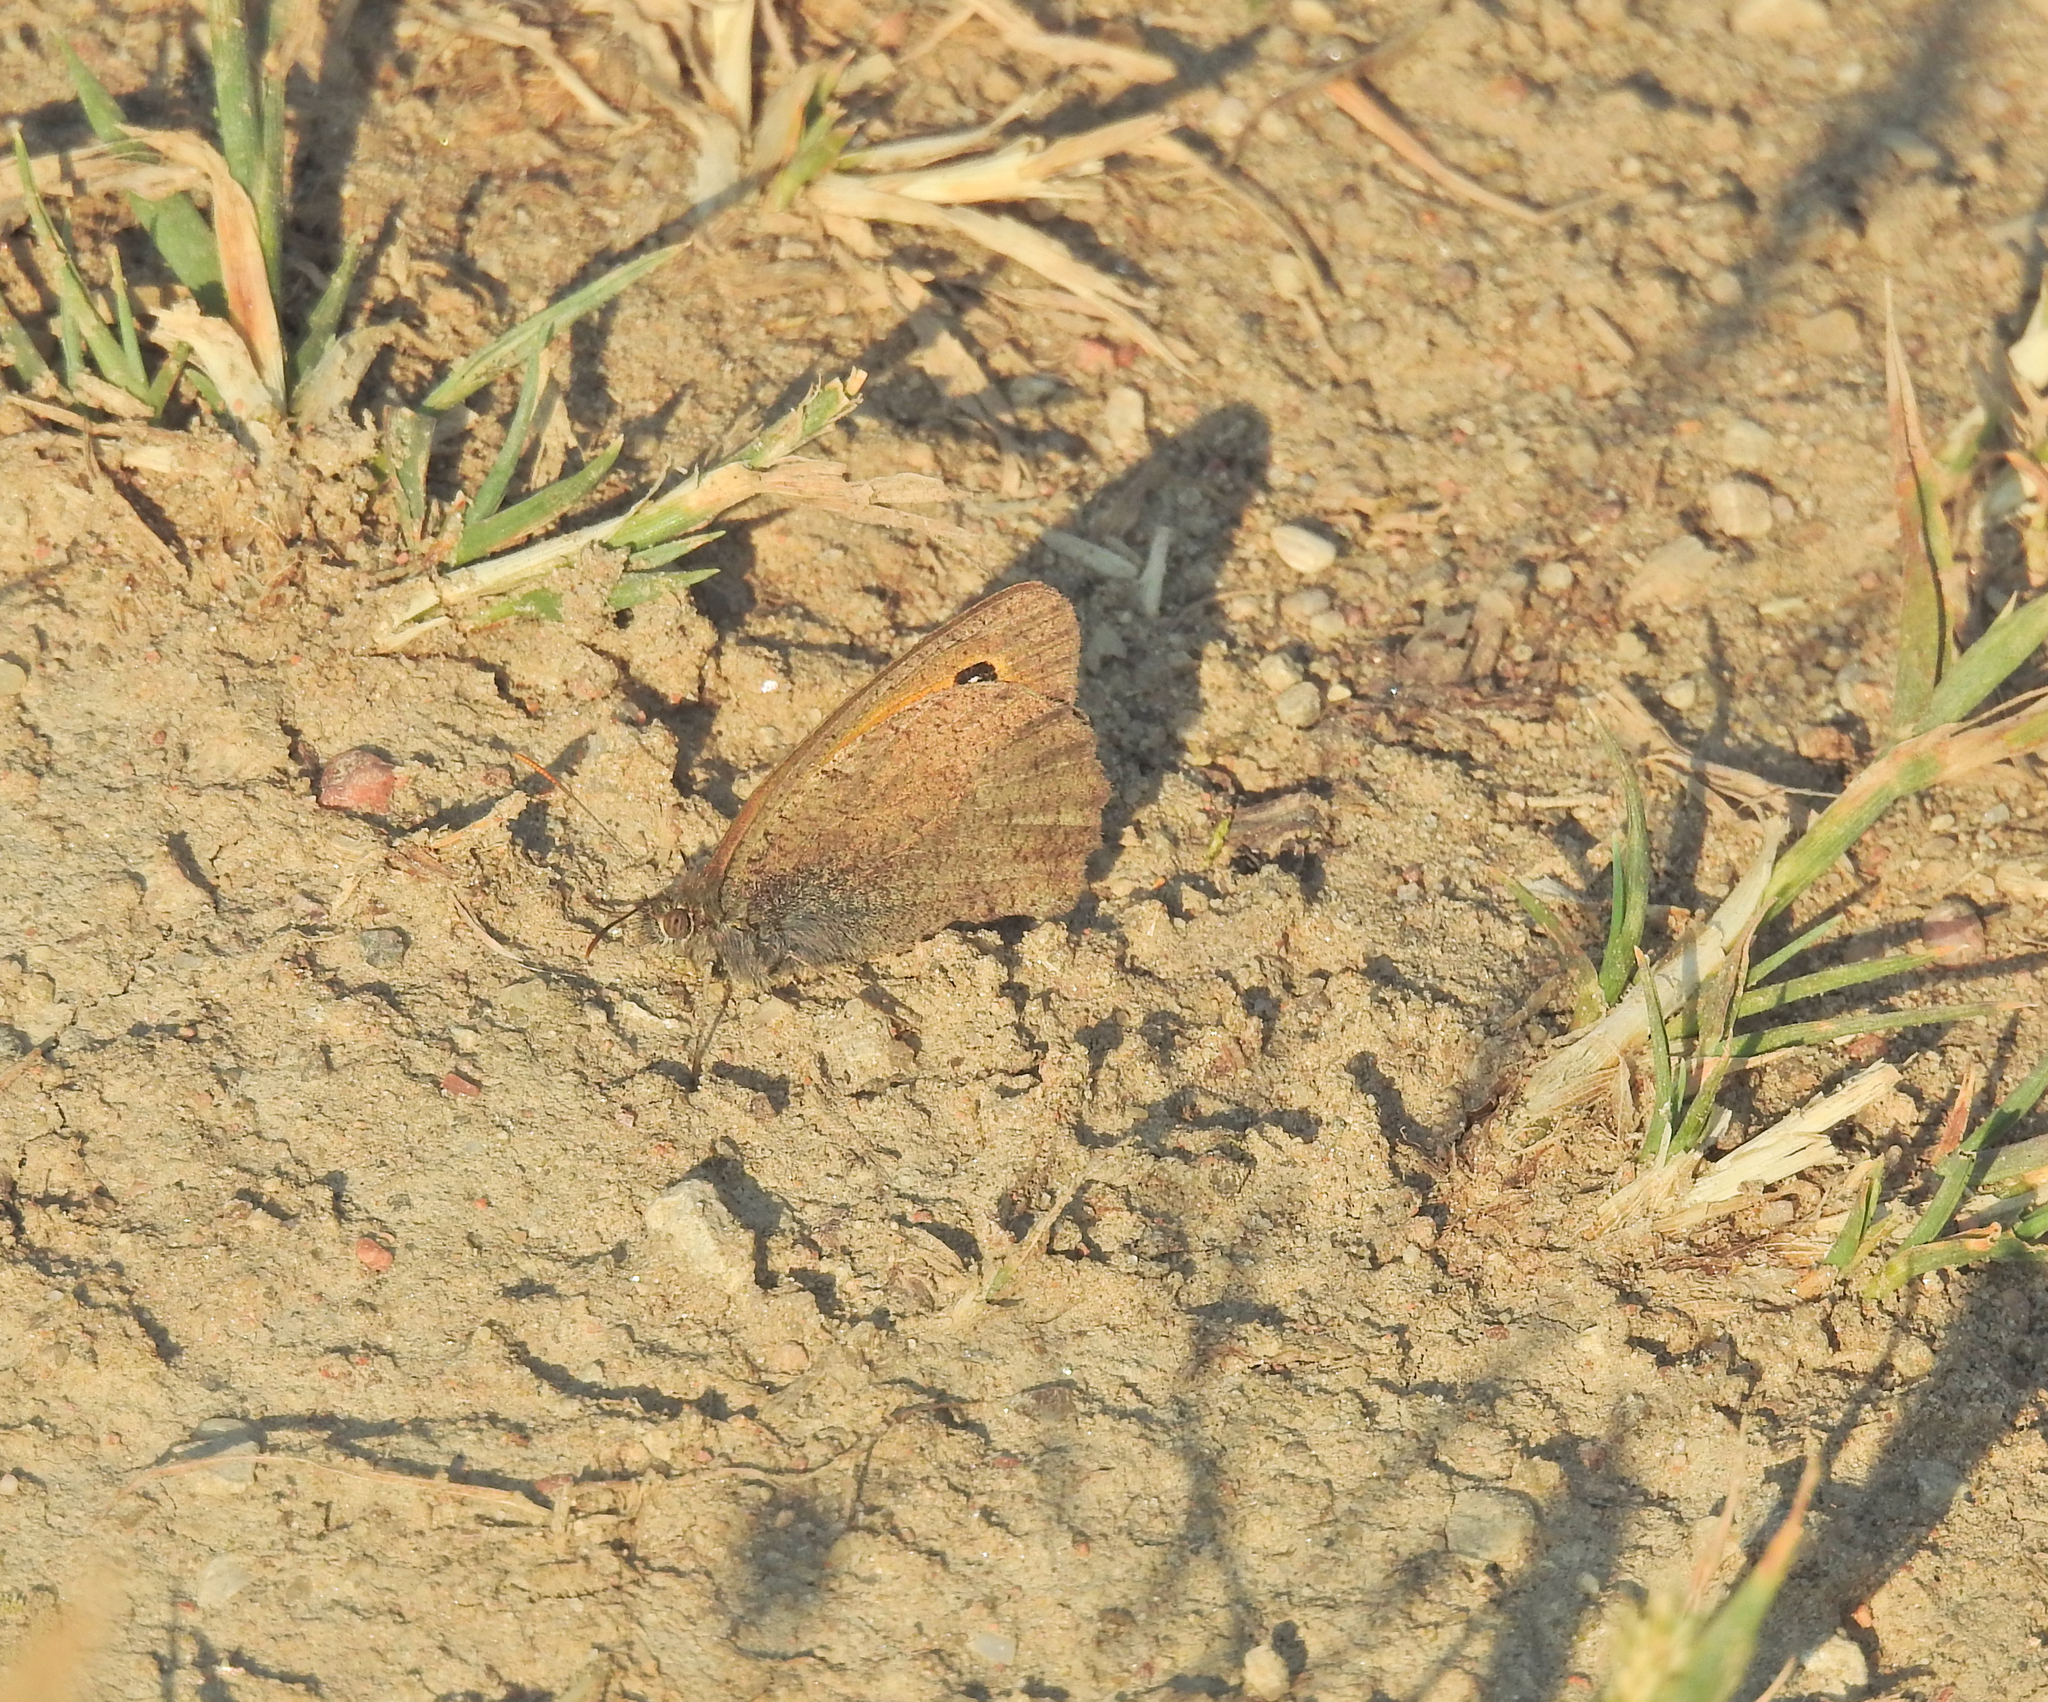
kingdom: Animalia
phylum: Arthropoda
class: Insecta
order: Lepidoptera
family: Nymphalidae
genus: Hyponephele
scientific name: Hyponephele lycaon
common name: Dusky meadow brown
